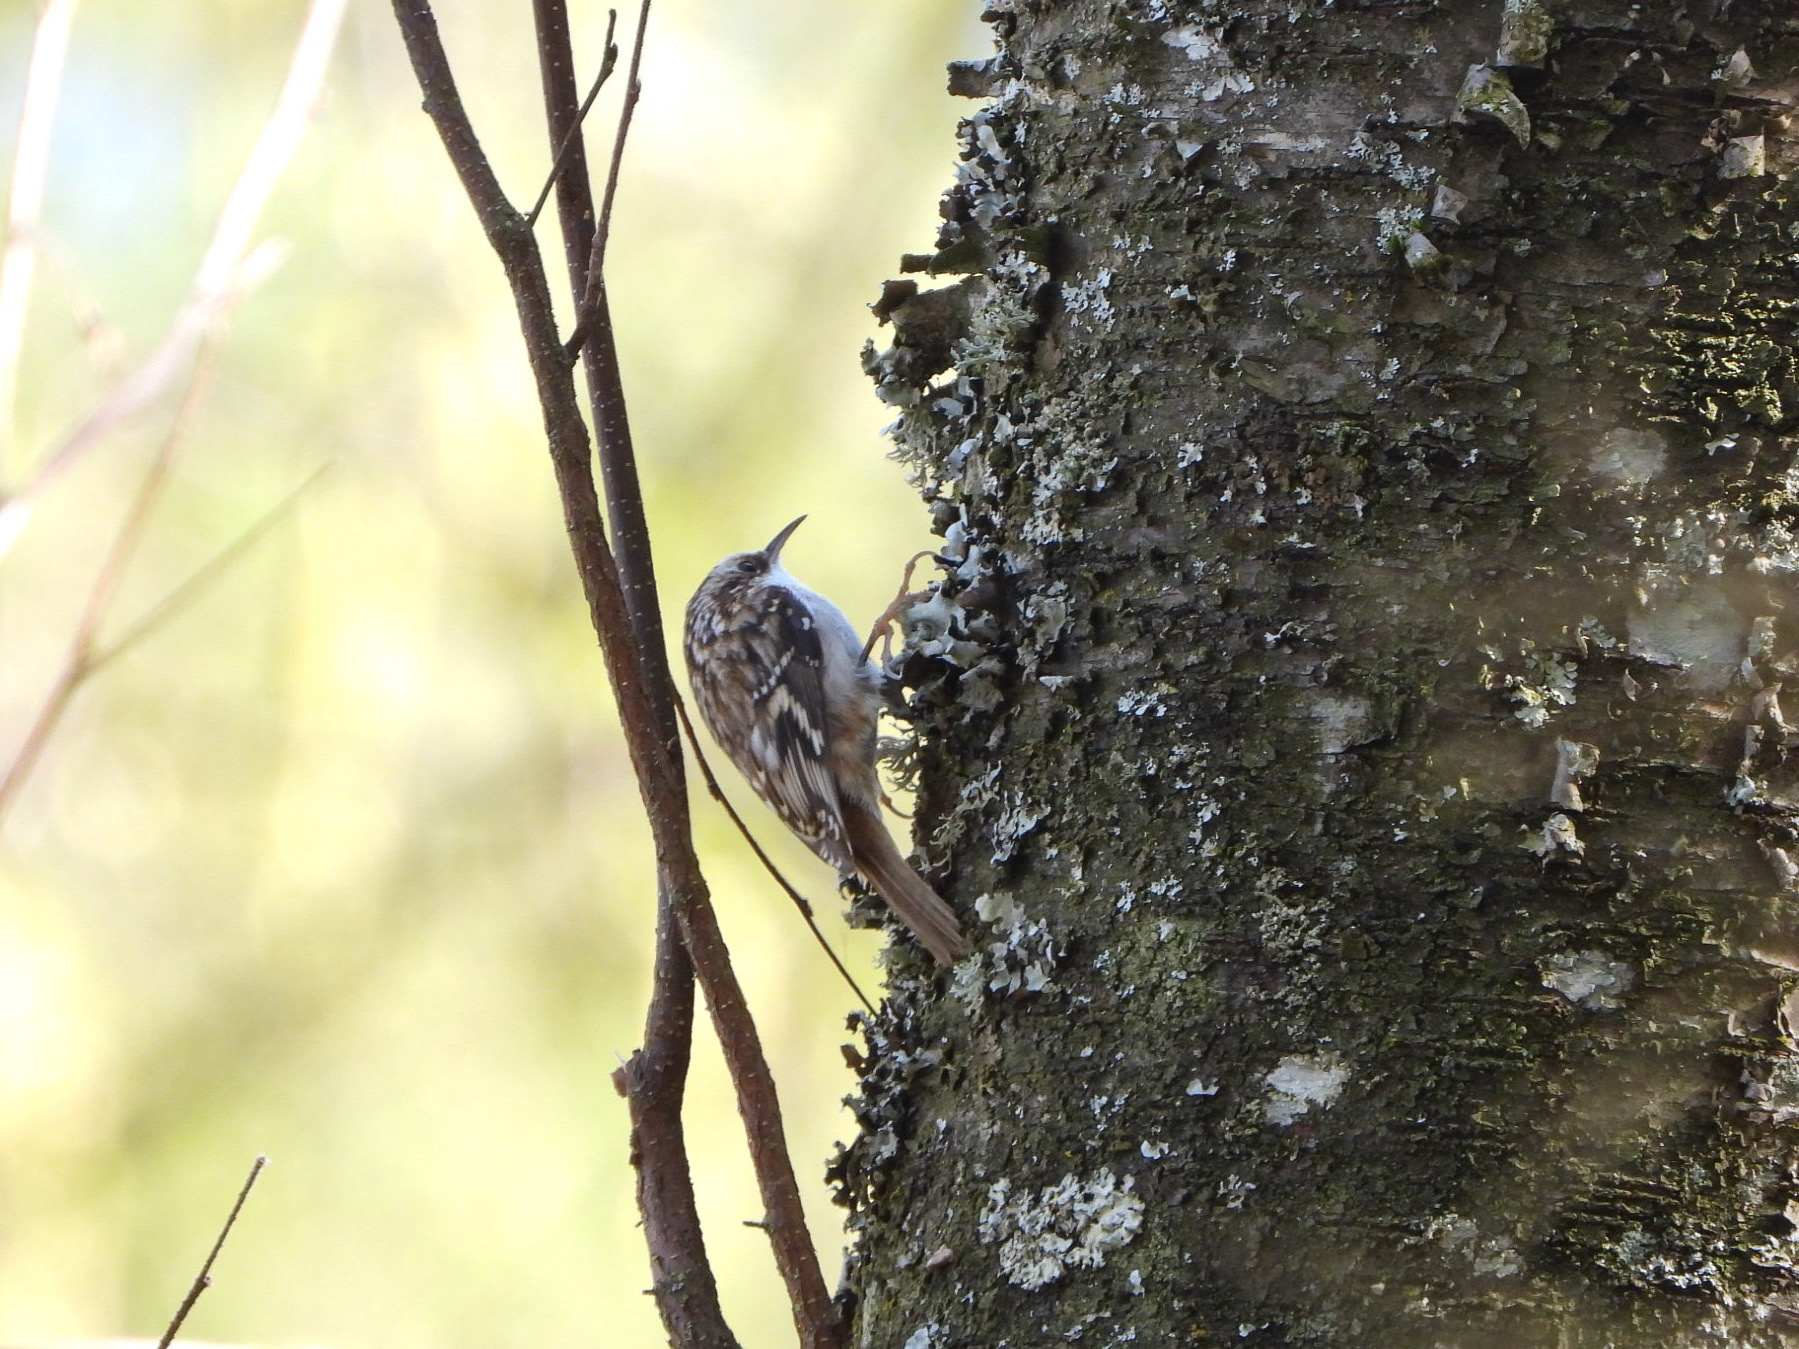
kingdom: Animalia
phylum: Chordata
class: Aves
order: Passeriformes
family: Certhiidae
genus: Certhia
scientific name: Certhia americana
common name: Brown creeper
